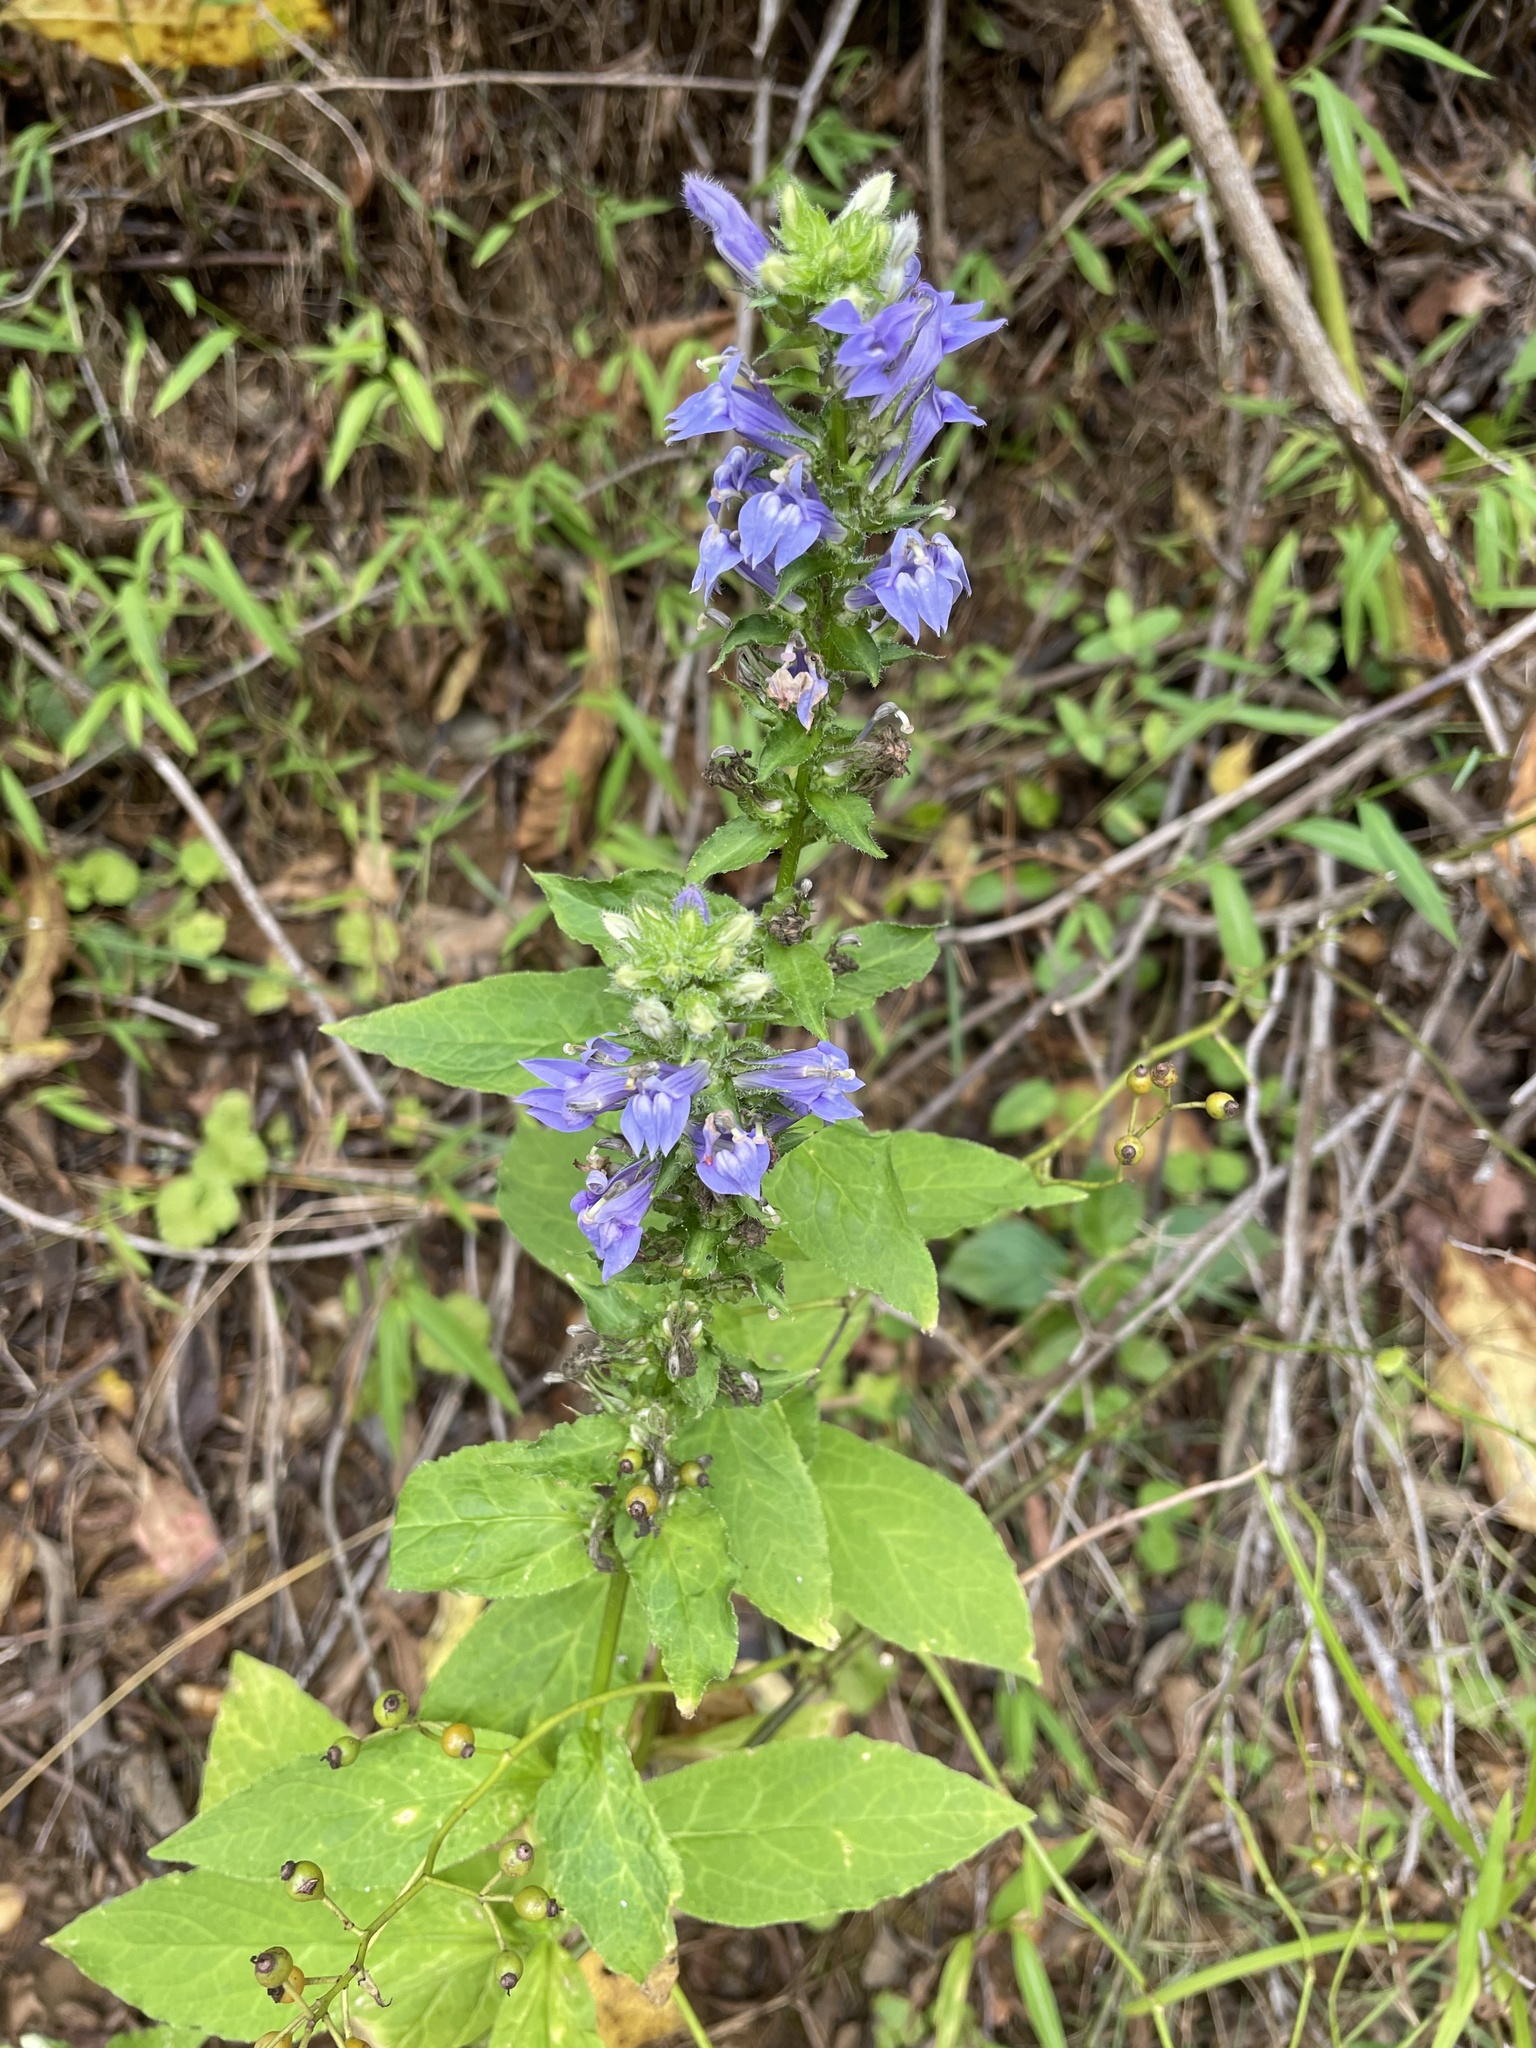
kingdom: Plantae
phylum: Tracheophyta
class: Magnoliopsida
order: Asterales
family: Campanulaceae
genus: Lobelia
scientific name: Lobelia siphilitica
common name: Great lobelia
